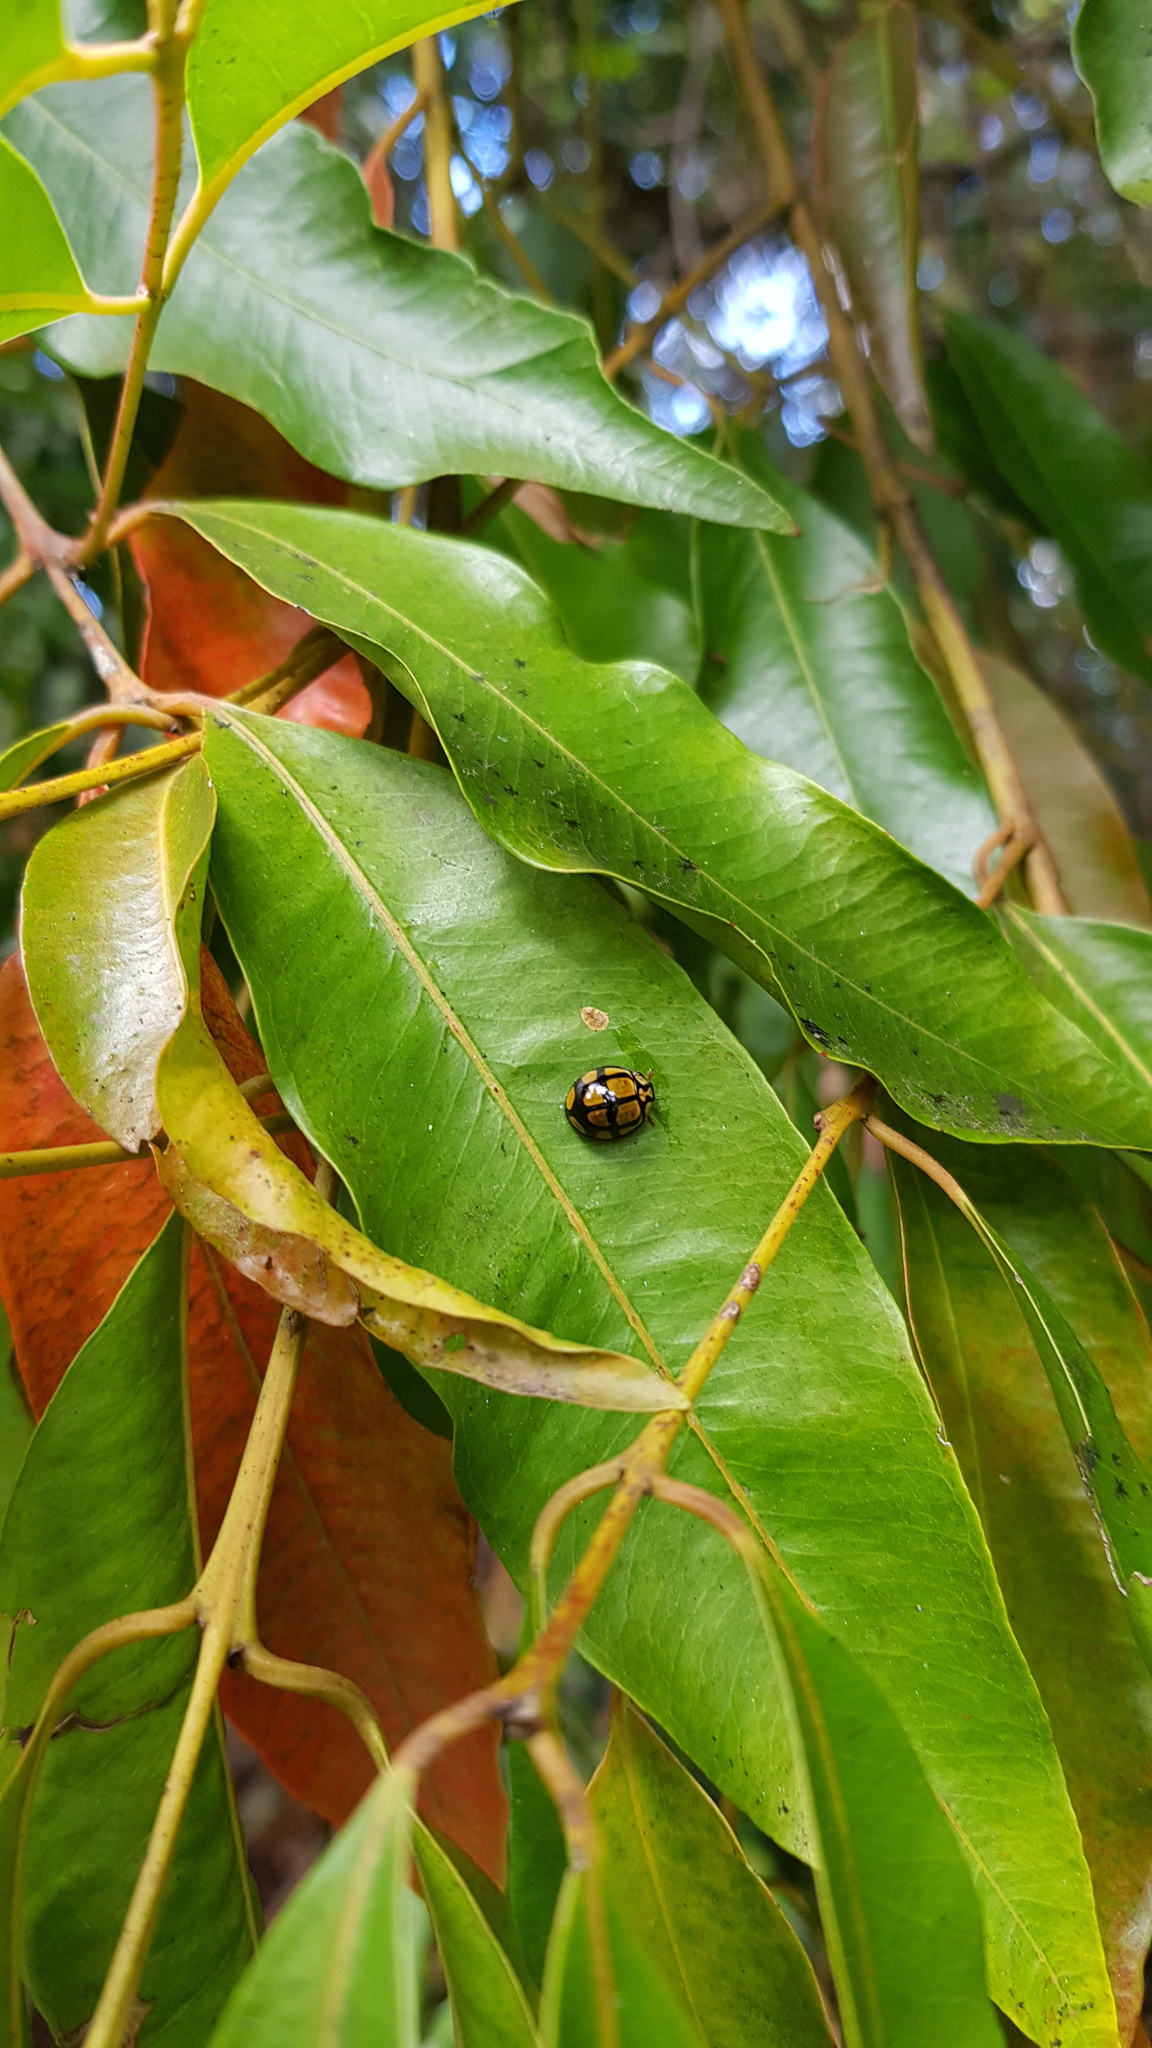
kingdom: Animalia
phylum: Arthropoda
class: Insecta
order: Coleoptera
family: Coccinellidae
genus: Harmonia
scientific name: Harmonia
